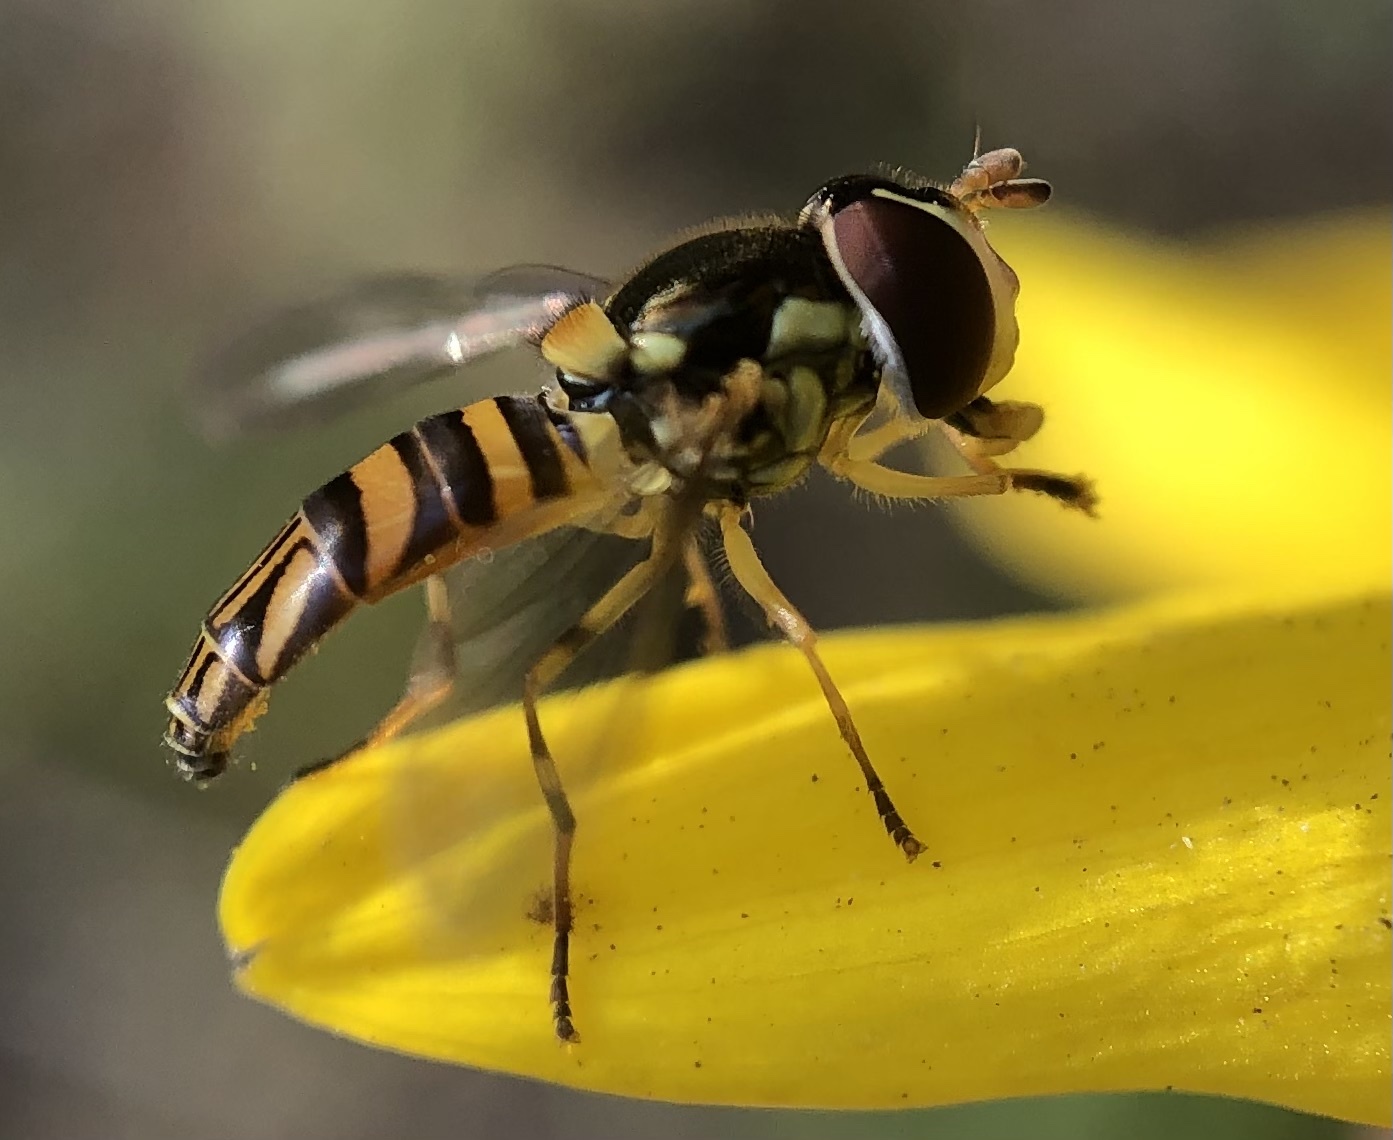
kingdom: Animalia
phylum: Arthropoda
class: Insecta
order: Diptera
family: Syrphidae
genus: Allograpta
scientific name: Allograpta obliqua
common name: Common oblique syrphid
